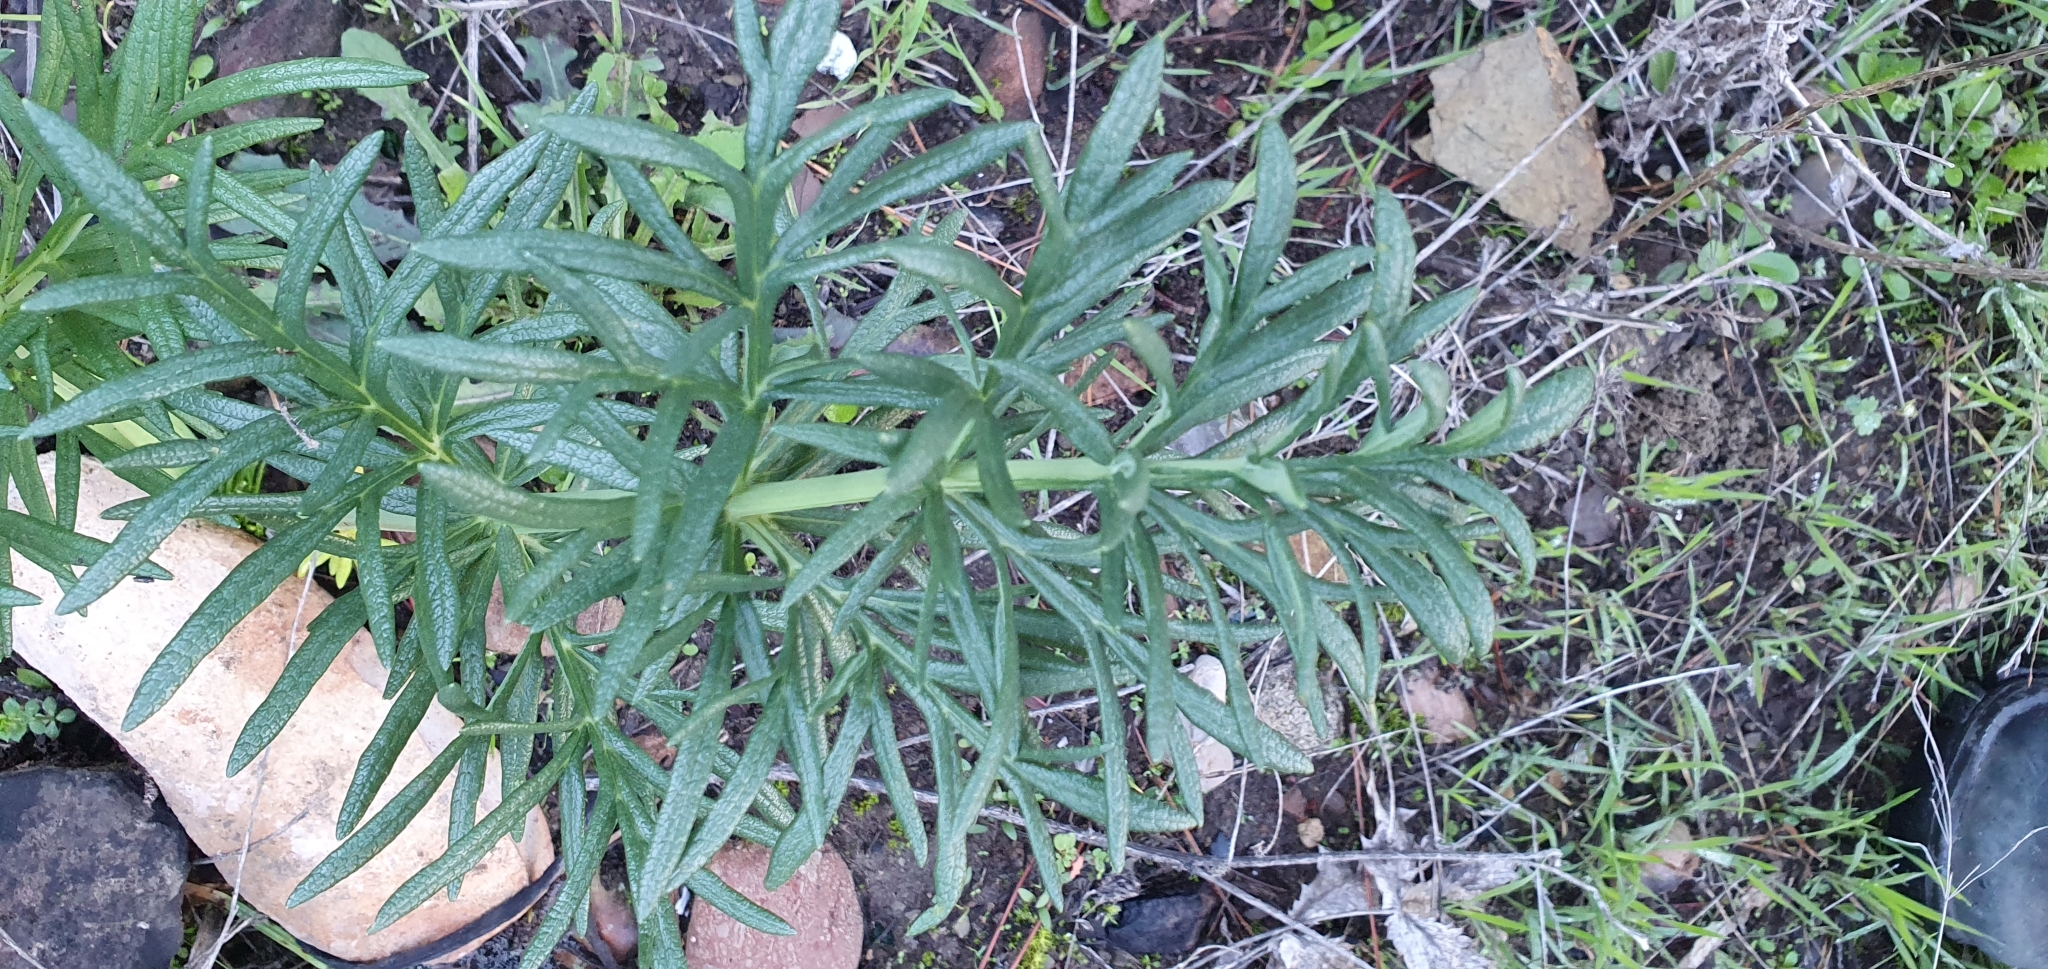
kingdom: Plantae
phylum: Tracheophyta
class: Magnoliopsida
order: Apiales
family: Apiaceae
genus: Thapsia
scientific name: Thapsia garganica
